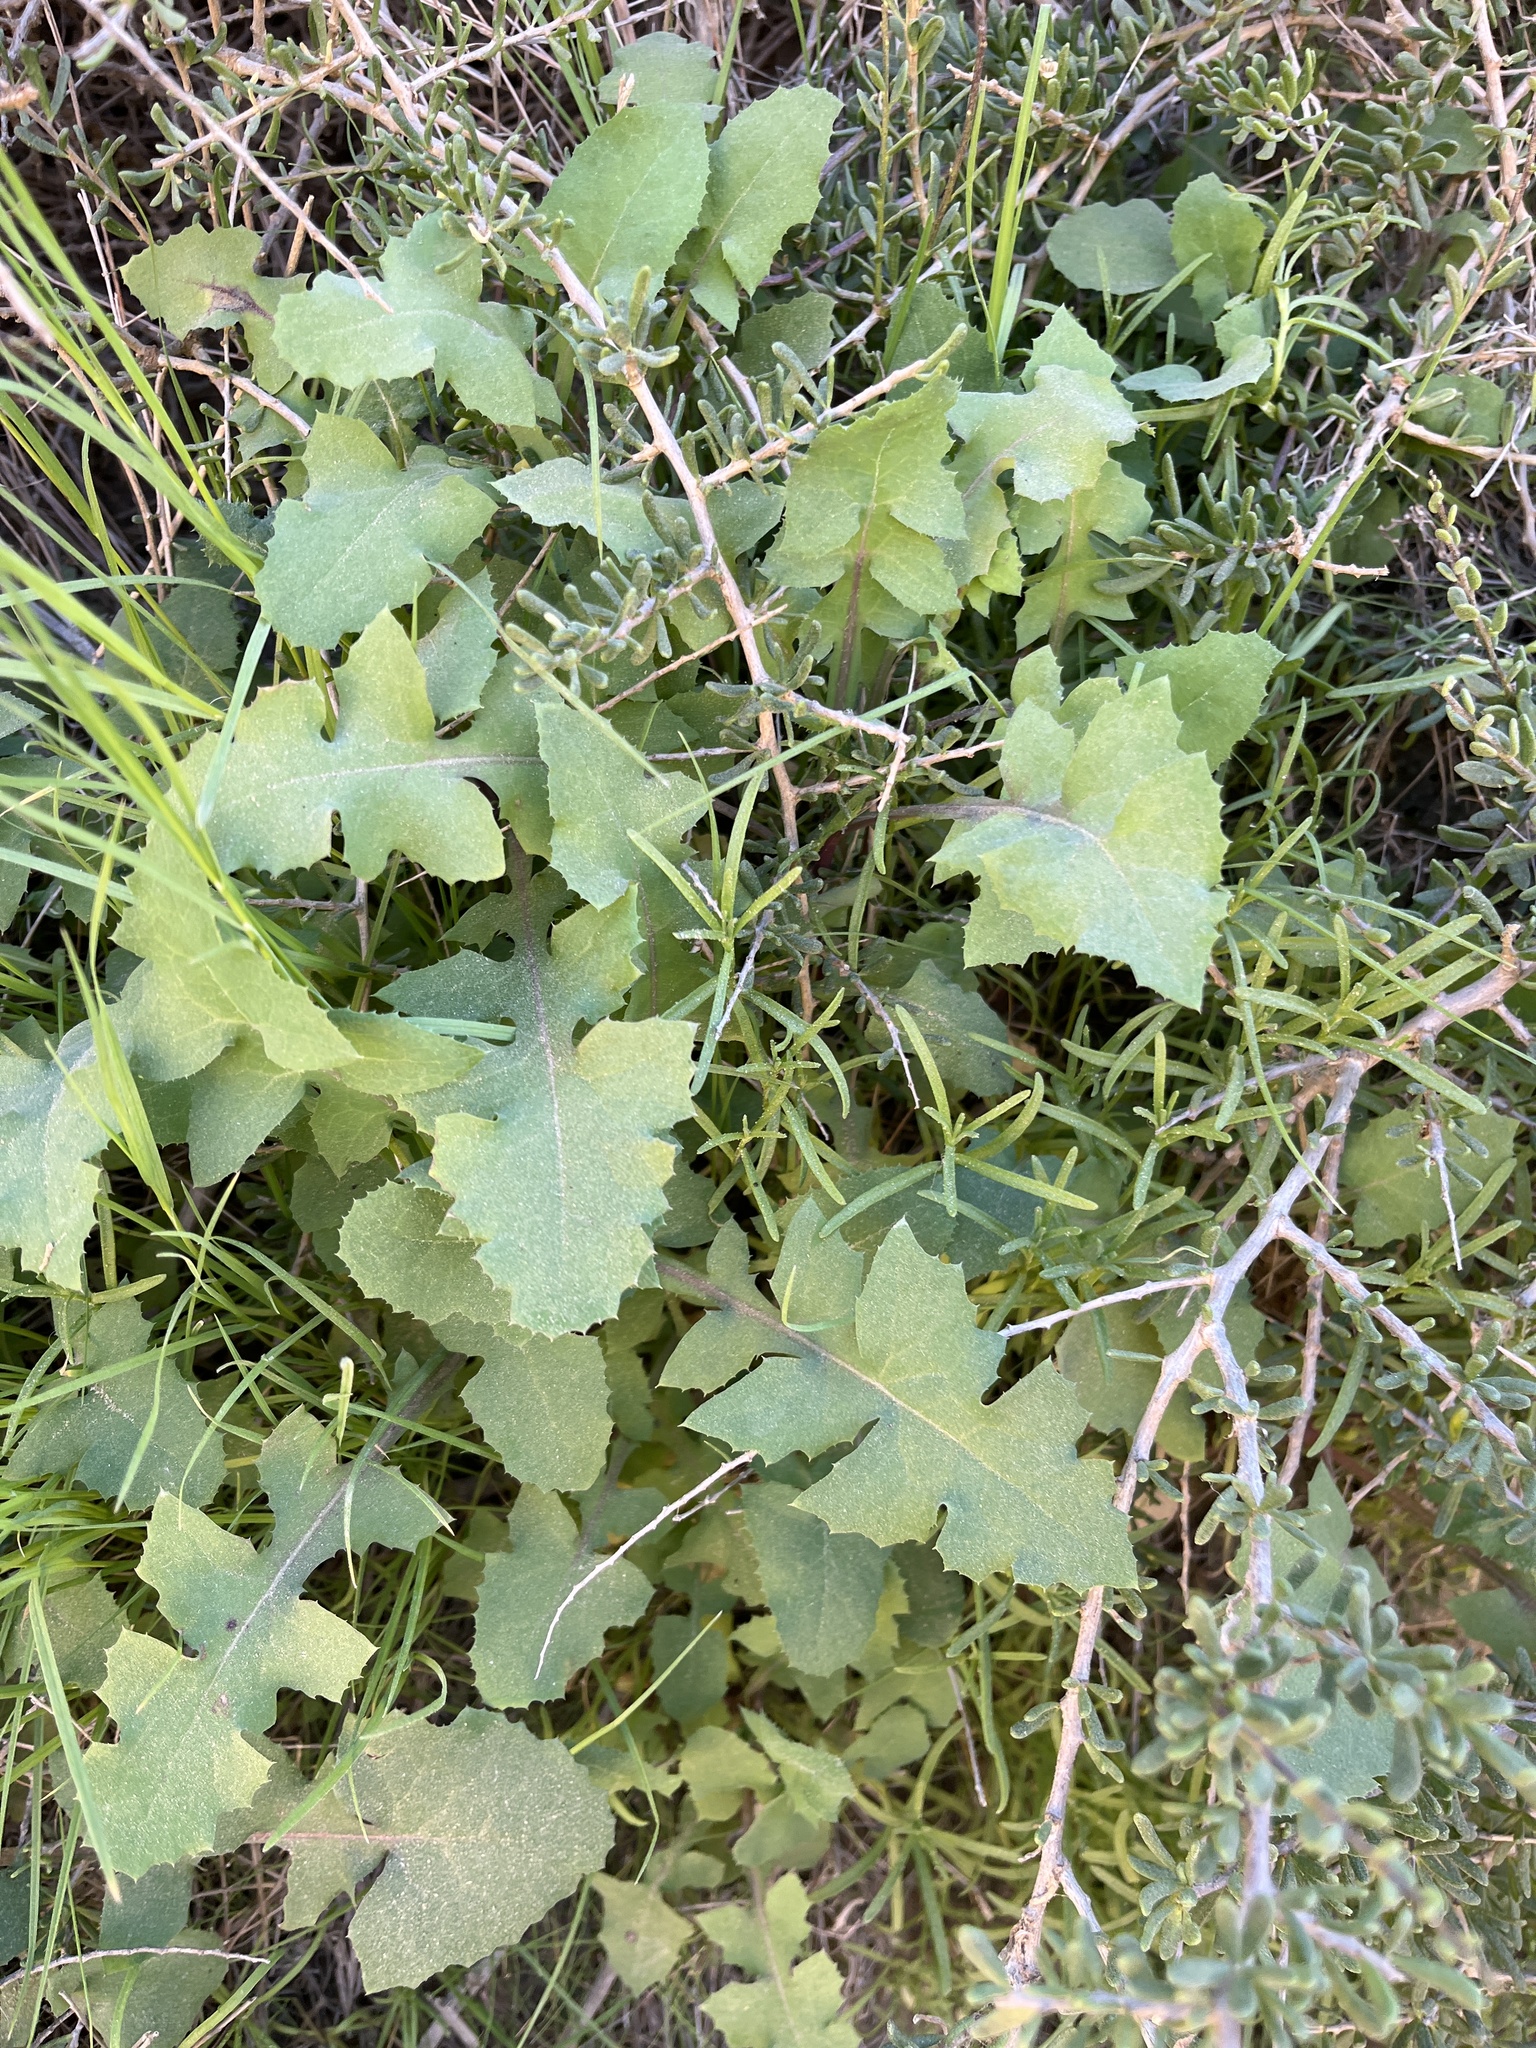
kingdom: Plantae
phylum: Tracheophyta
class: Magnoliopsida
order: Asterales
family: Asteraceae
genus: Sonchus
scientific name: Sonchus oleraceus
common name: Common sowthistle
